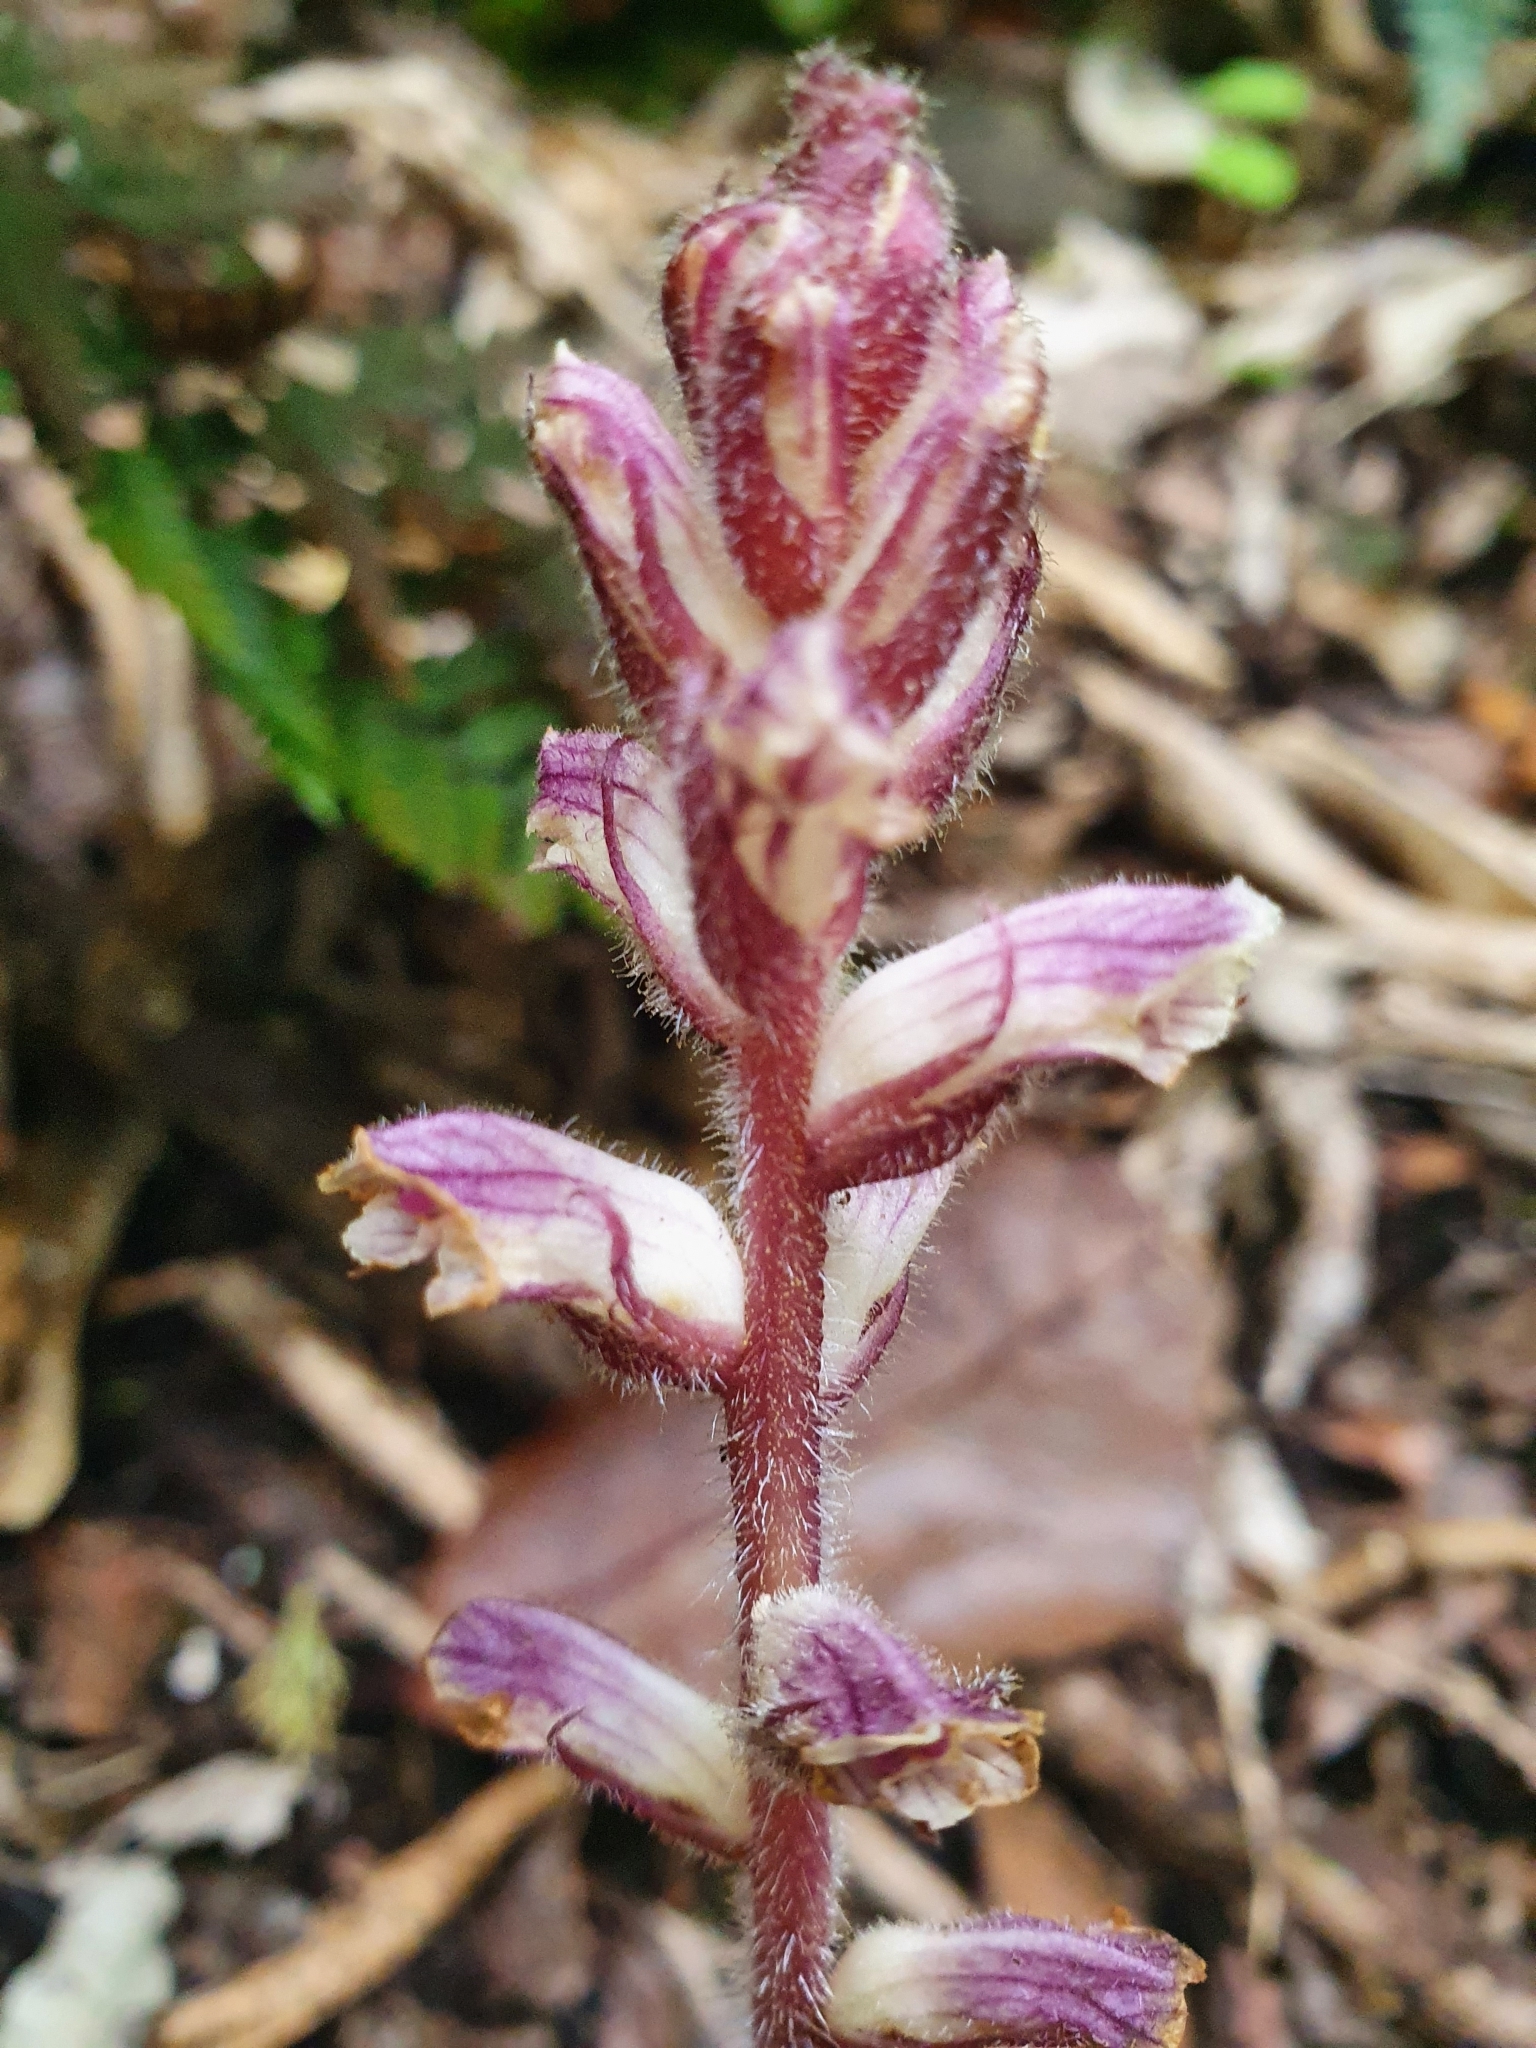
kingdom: Plantae
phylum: Tracheophyta
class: Magnoliopsida
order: Lamiales
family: Orobanchaceae
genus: Orobanche
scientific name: Orobanche minor
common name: Common broomrape
